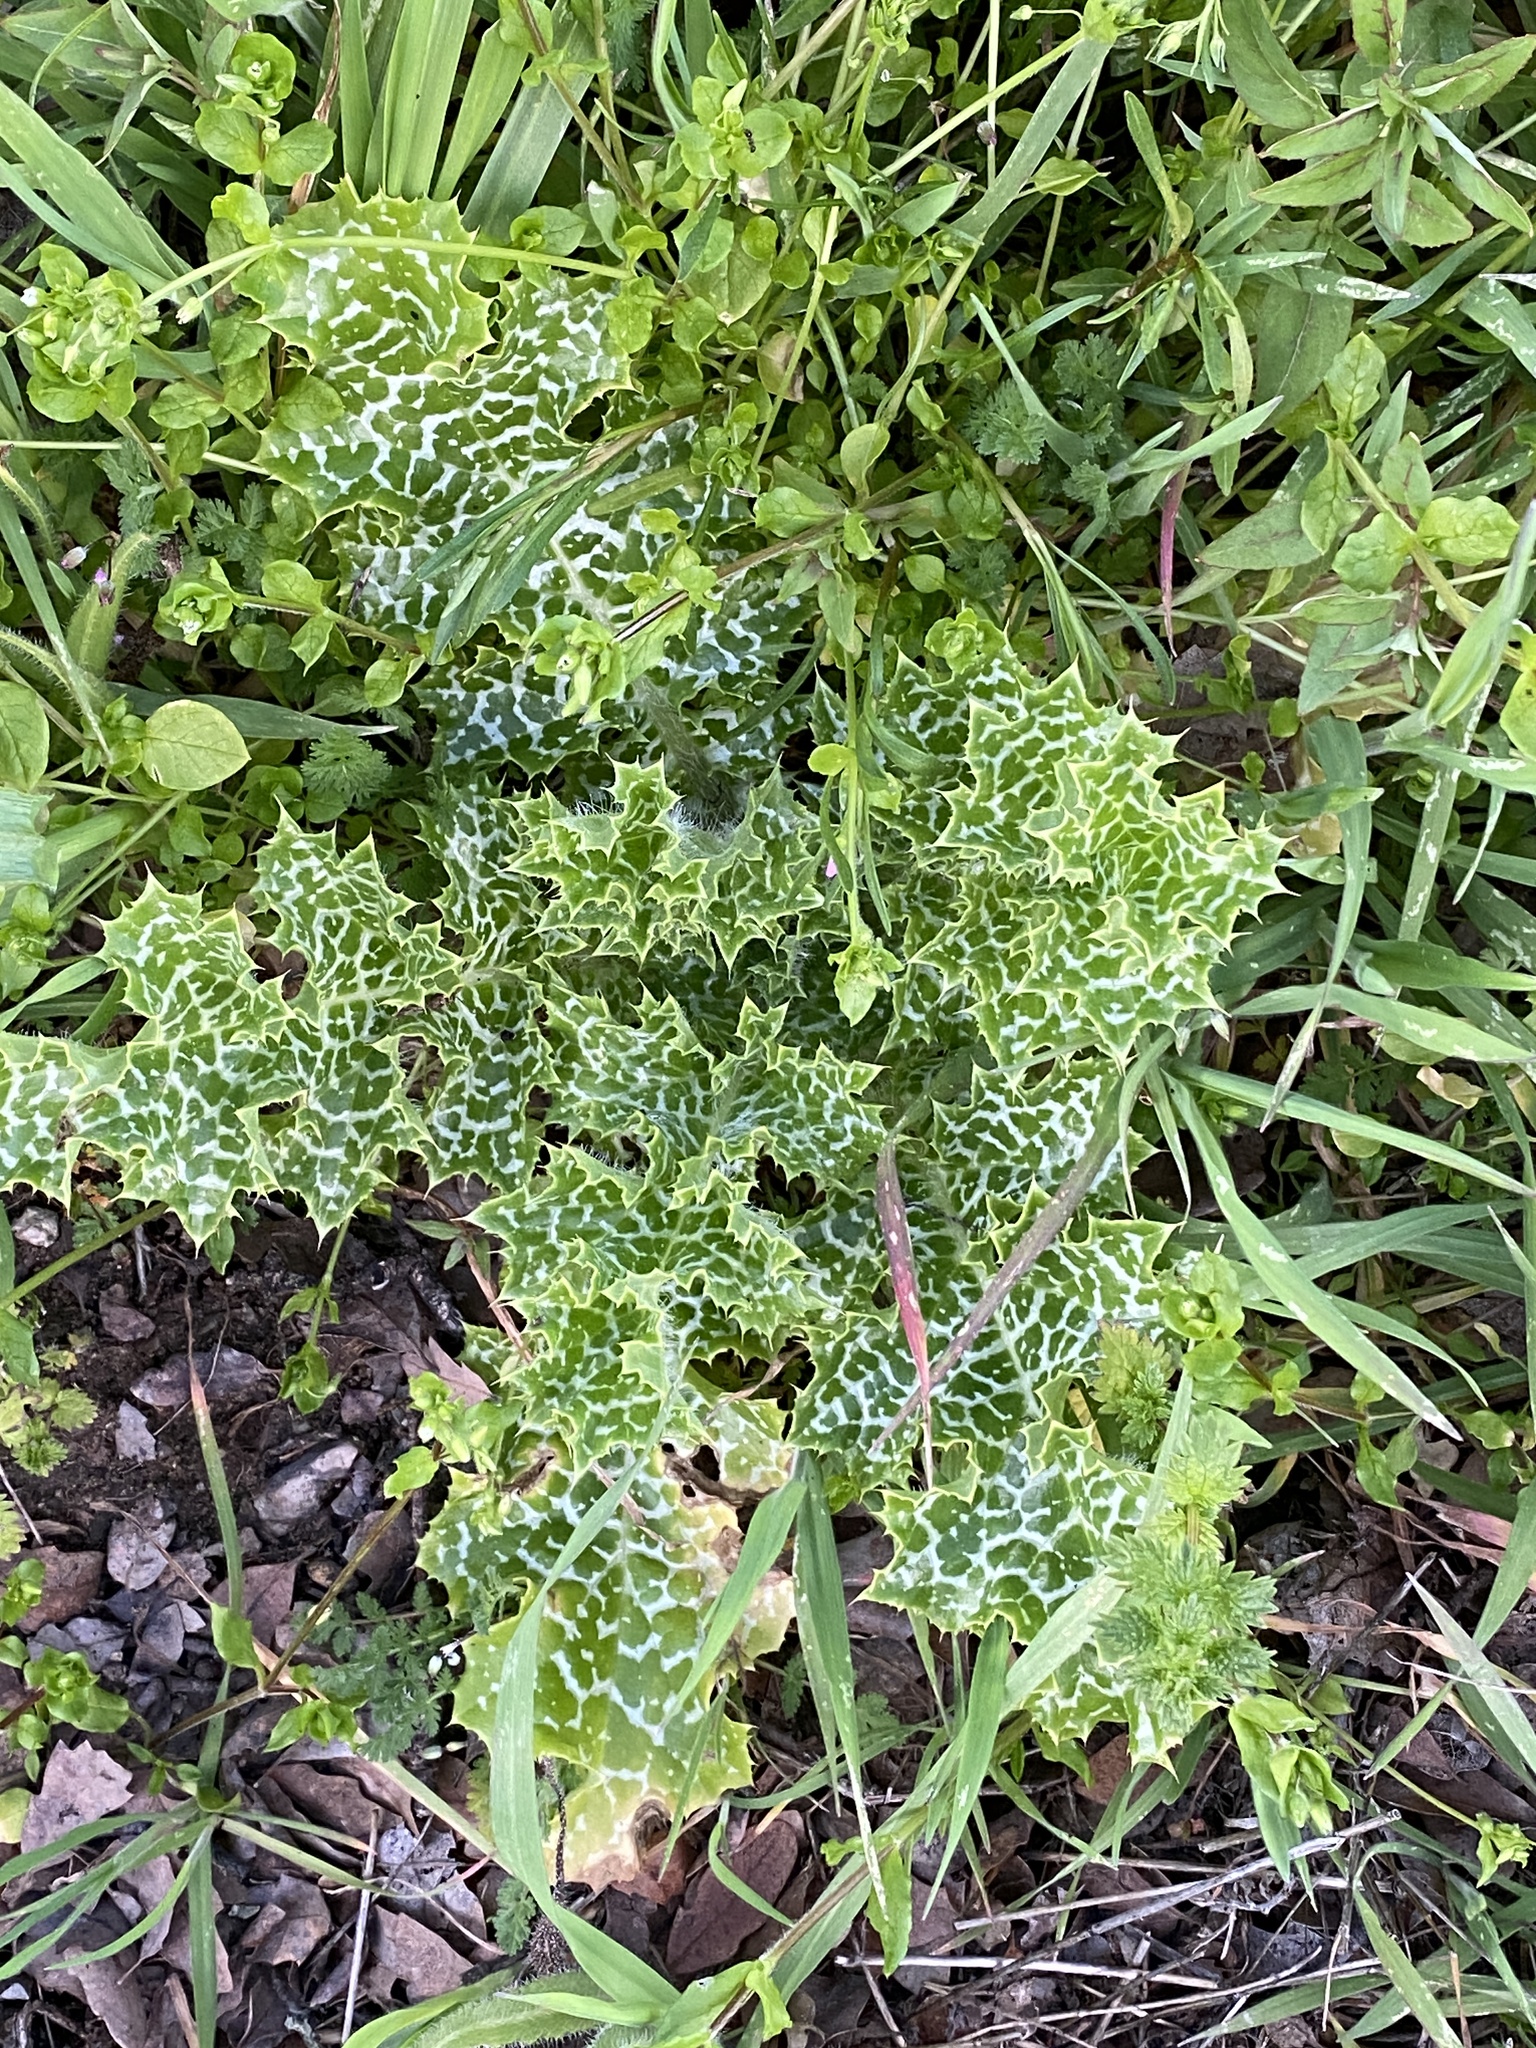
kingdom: Plantae
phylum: Tracheophyta
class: Magnoliopsida
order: Asterales
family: Asteraceae
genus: Silybum
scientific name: Silybum marianum
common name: Milk thistle
